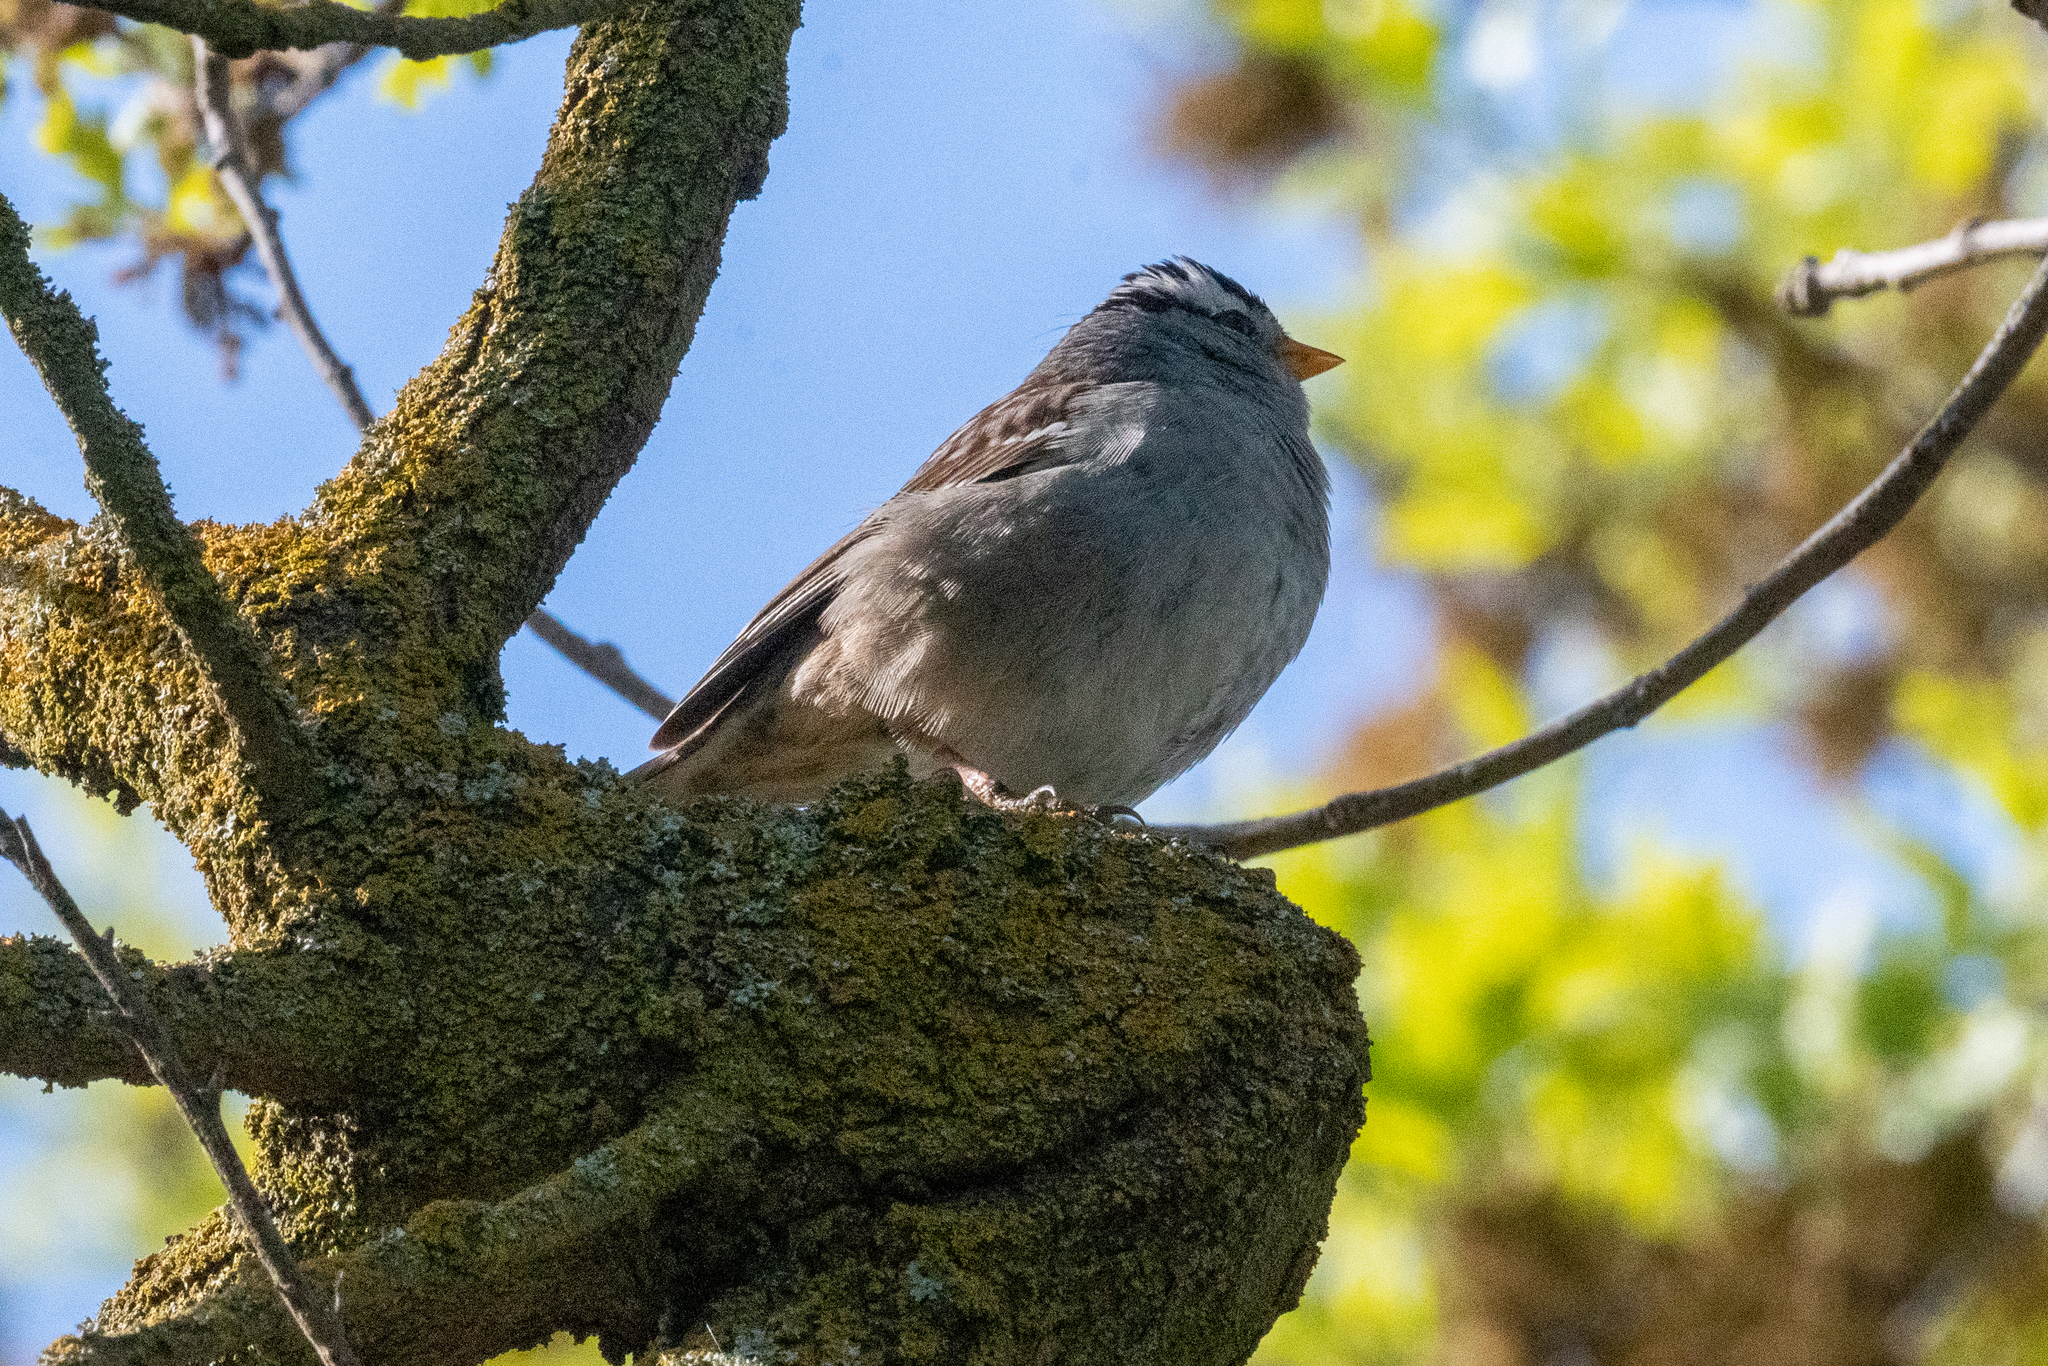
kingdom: Animalia
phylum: Chordata
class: Aves
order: Passeriformes
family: Passerellidae
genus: Zonotrichia
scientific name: Zonotrichia leucophrys
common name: White-crowned sparrow
